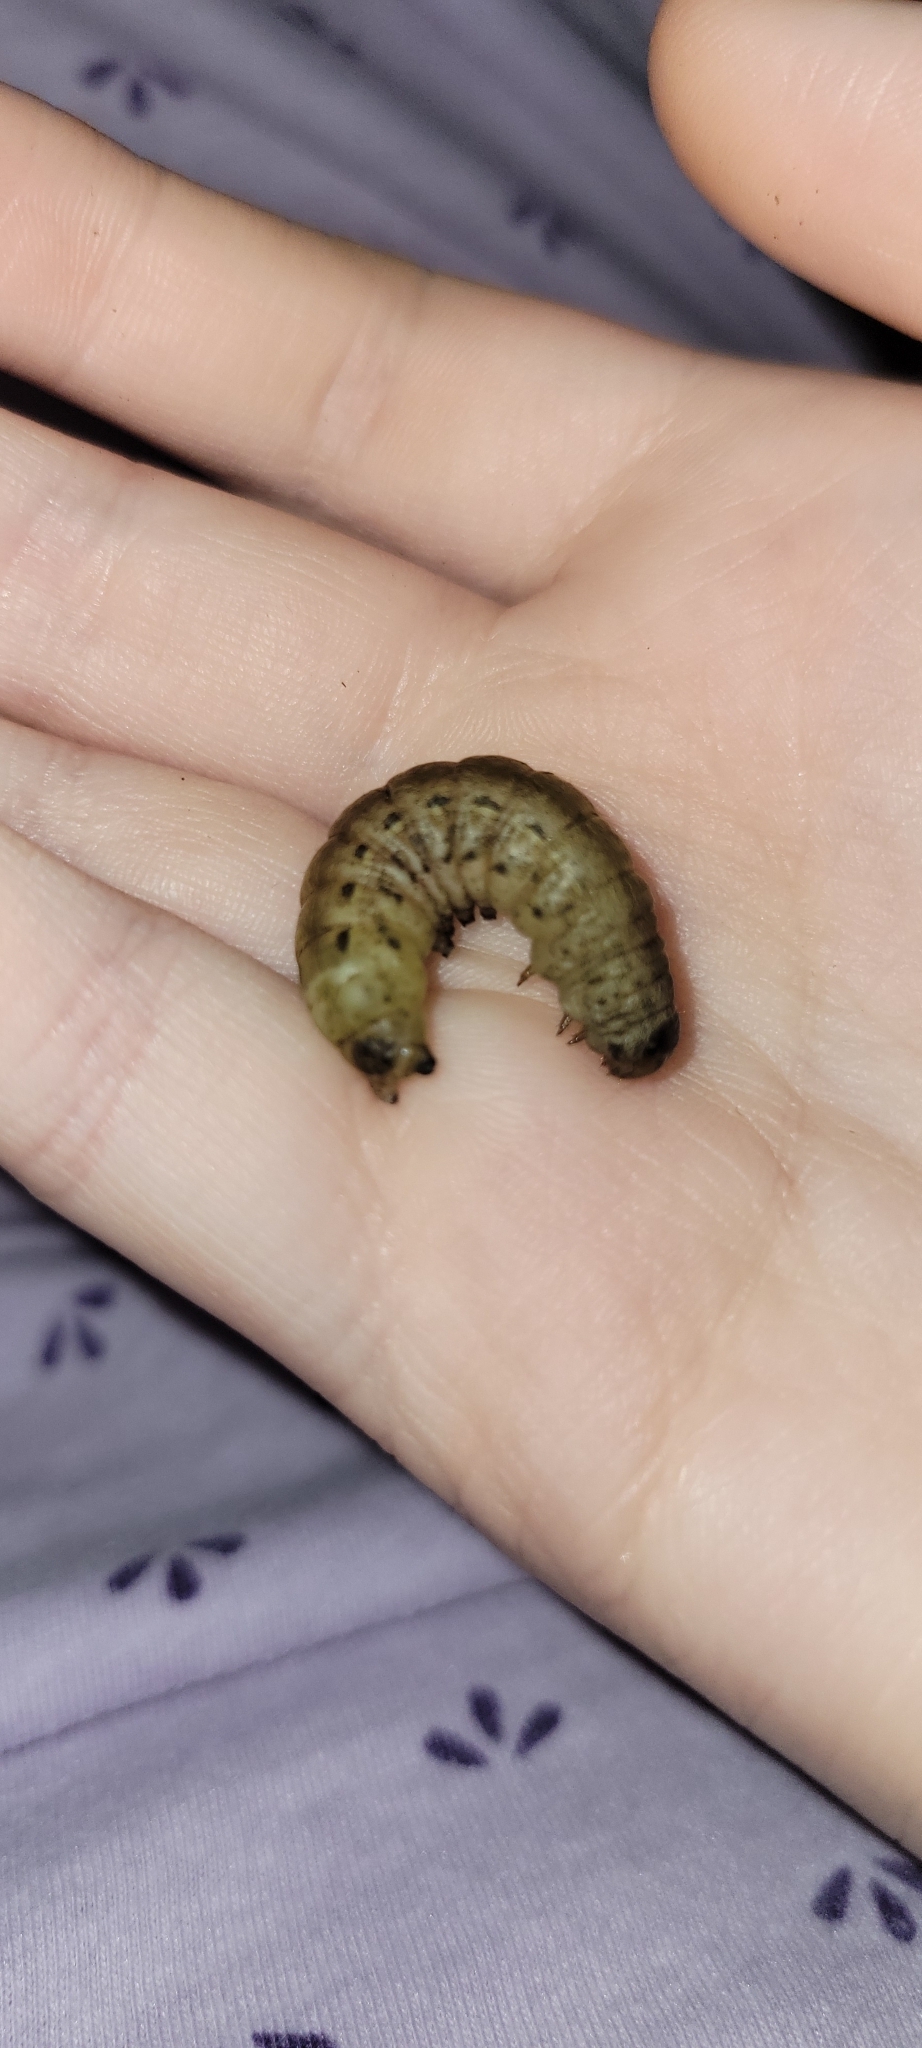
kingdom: Animalia
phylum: Arthropoda
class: Insecta
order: Lepidoptera
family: Noctuidae
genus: Noctua
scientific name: Noctua pronuba
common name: Large yellow underwing
